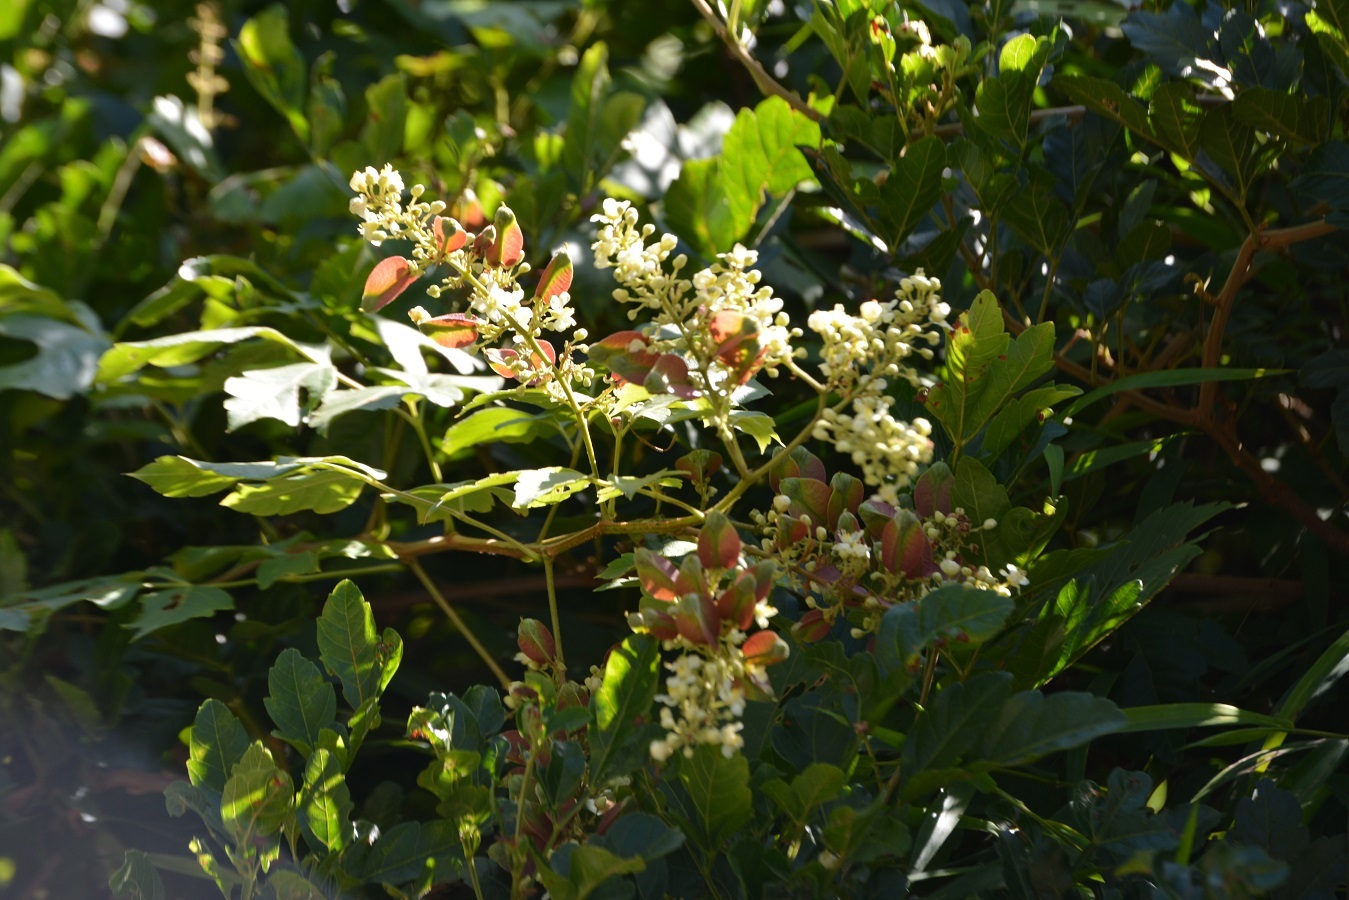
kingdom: Plantae
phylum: Tracheophyta
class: Magnoliopsida
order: Sapindales
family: Sapindaceae
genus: Serjania
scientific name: Serjania racemosa
